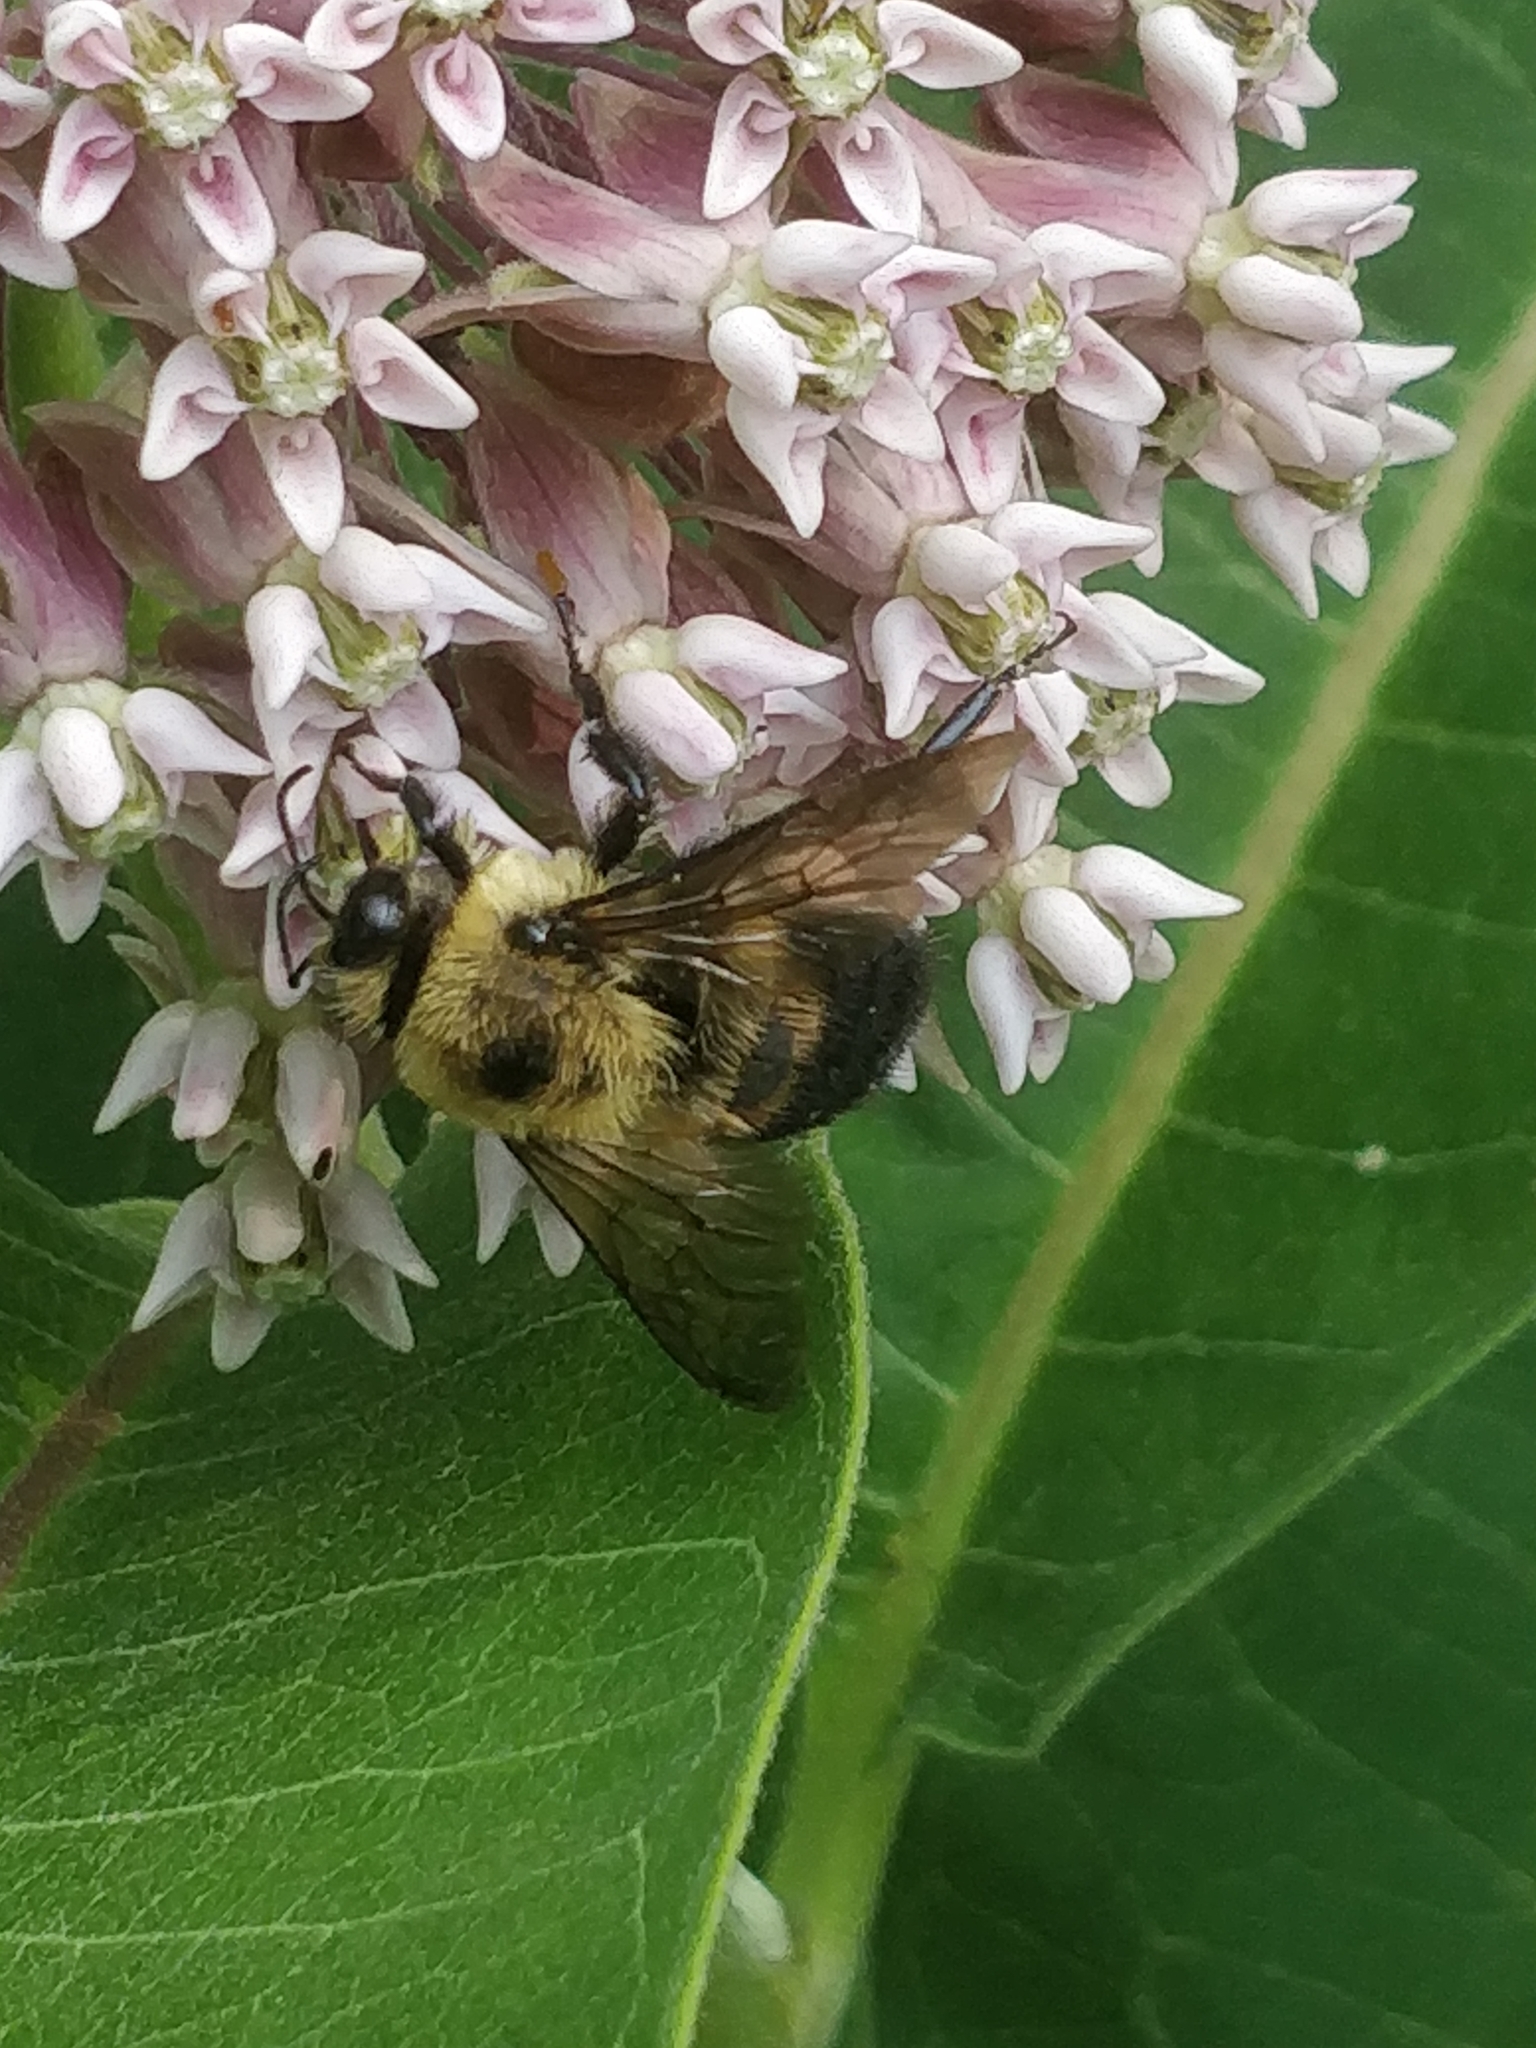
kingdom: Animalia
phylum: Arthropoda
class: Insecta
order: Hymenoptera
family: Apidae
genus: Bombus
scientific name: Bombus griseocollis
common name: Brown-belted bumble bee
